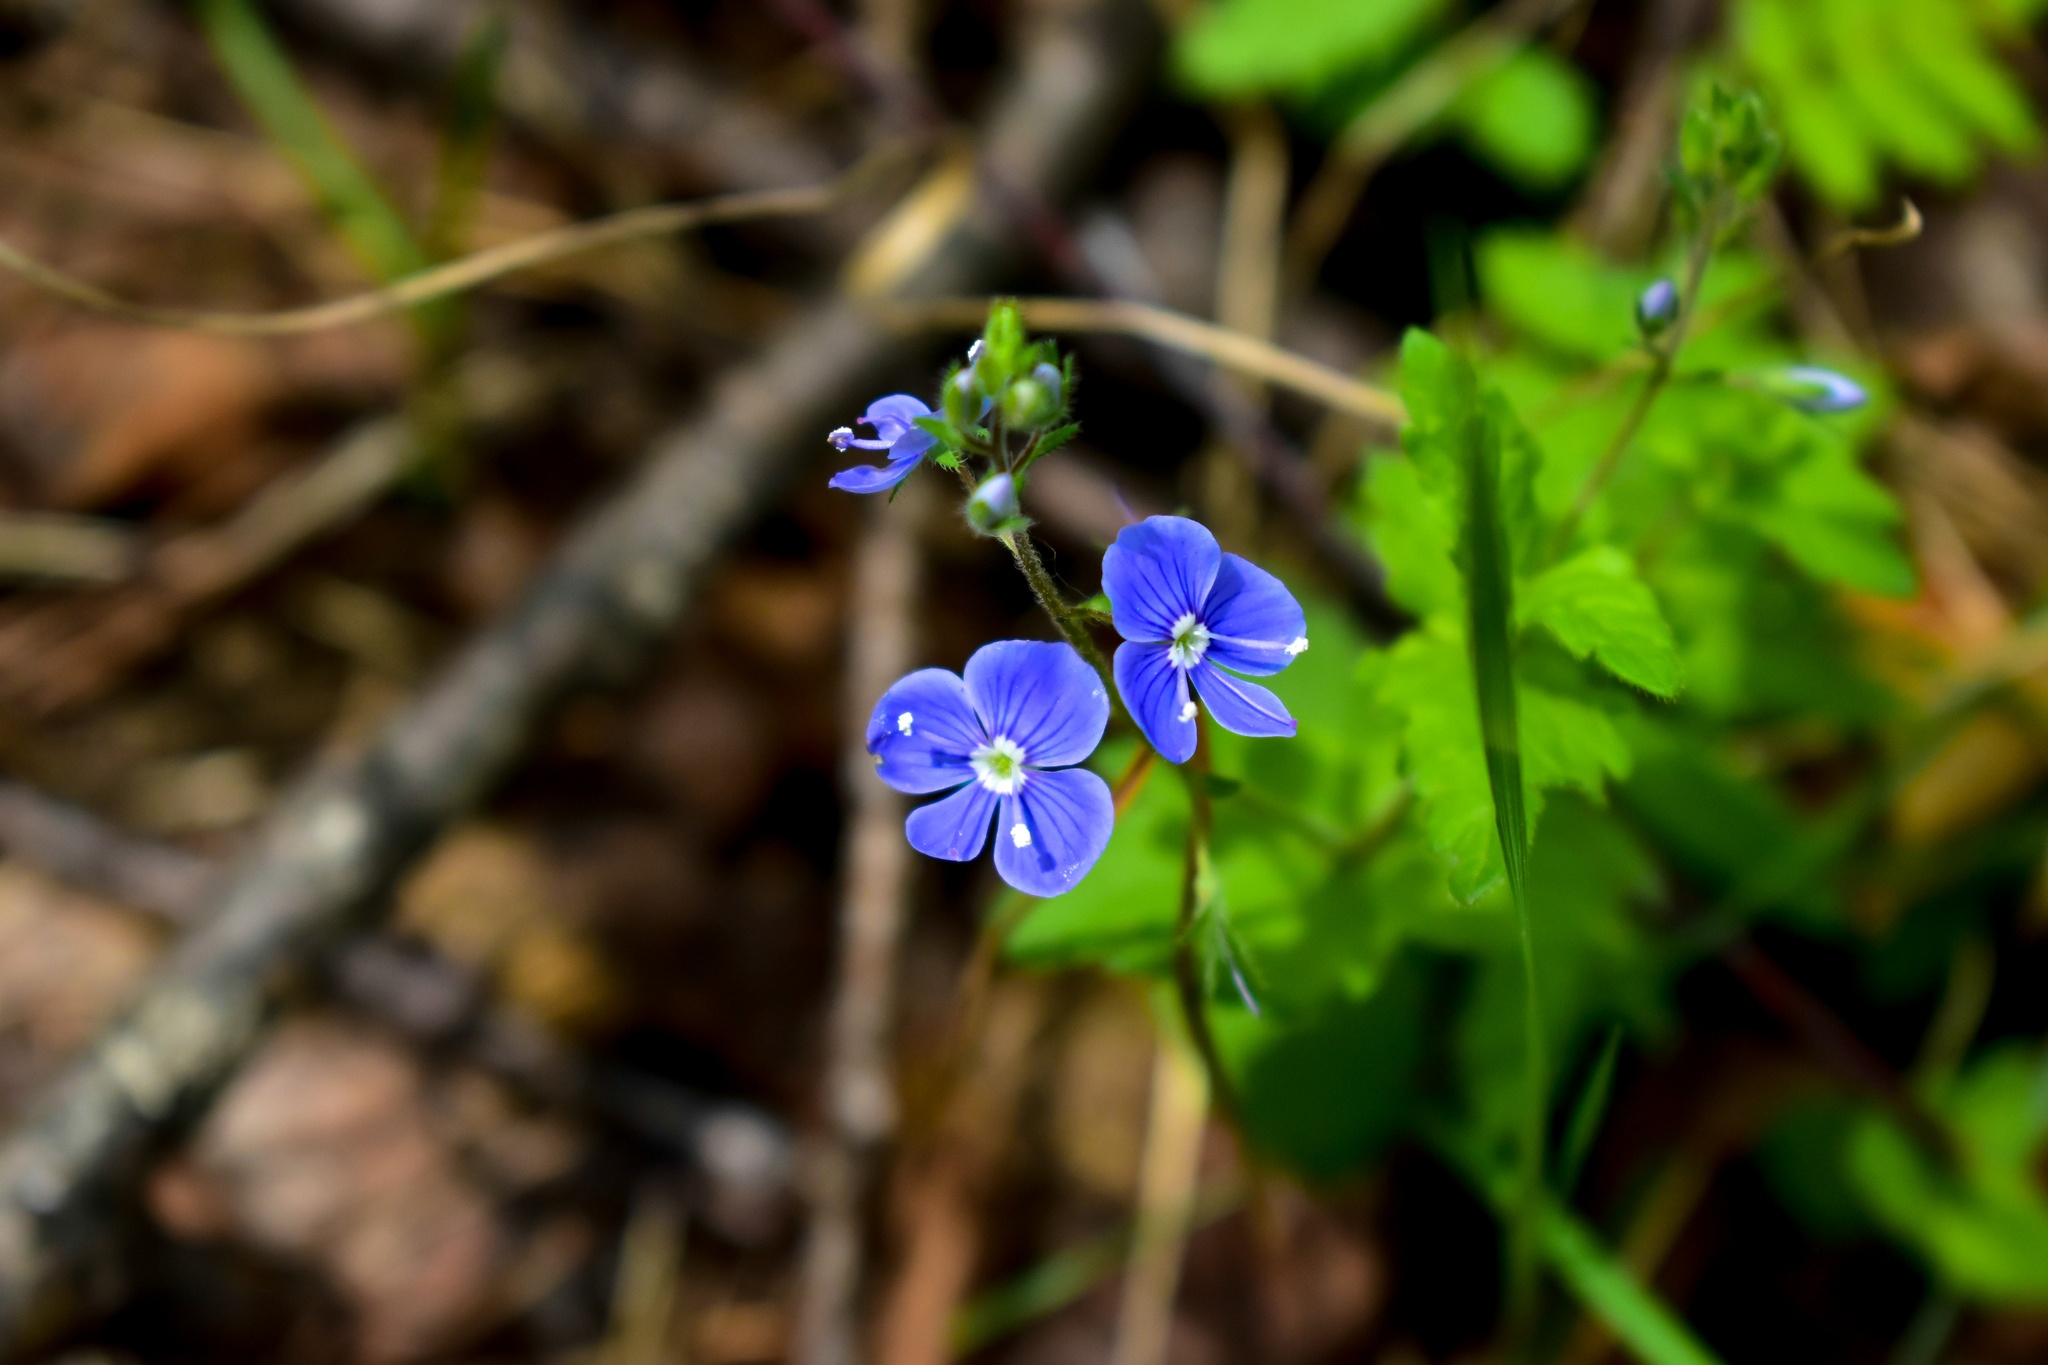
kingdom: Plantae
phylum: Tracheophyta
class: Magnoliopsida
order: Lamiales
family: Plantaginaceae
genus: Veronica
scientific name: Veronica chamaedrys
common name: Germander speedwell
